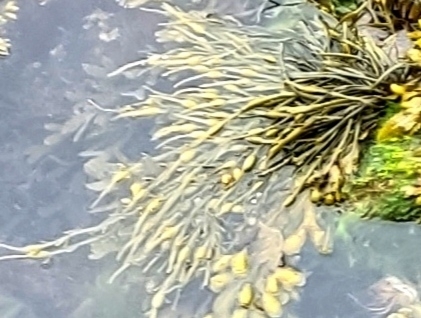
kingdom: Chromista
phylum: Ochrophyta
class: Phaeophyceae
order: Fucales
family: Fucaceae
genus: Ascophyllum
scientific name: Ascophyllum nodosum
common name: Knotted wrack
